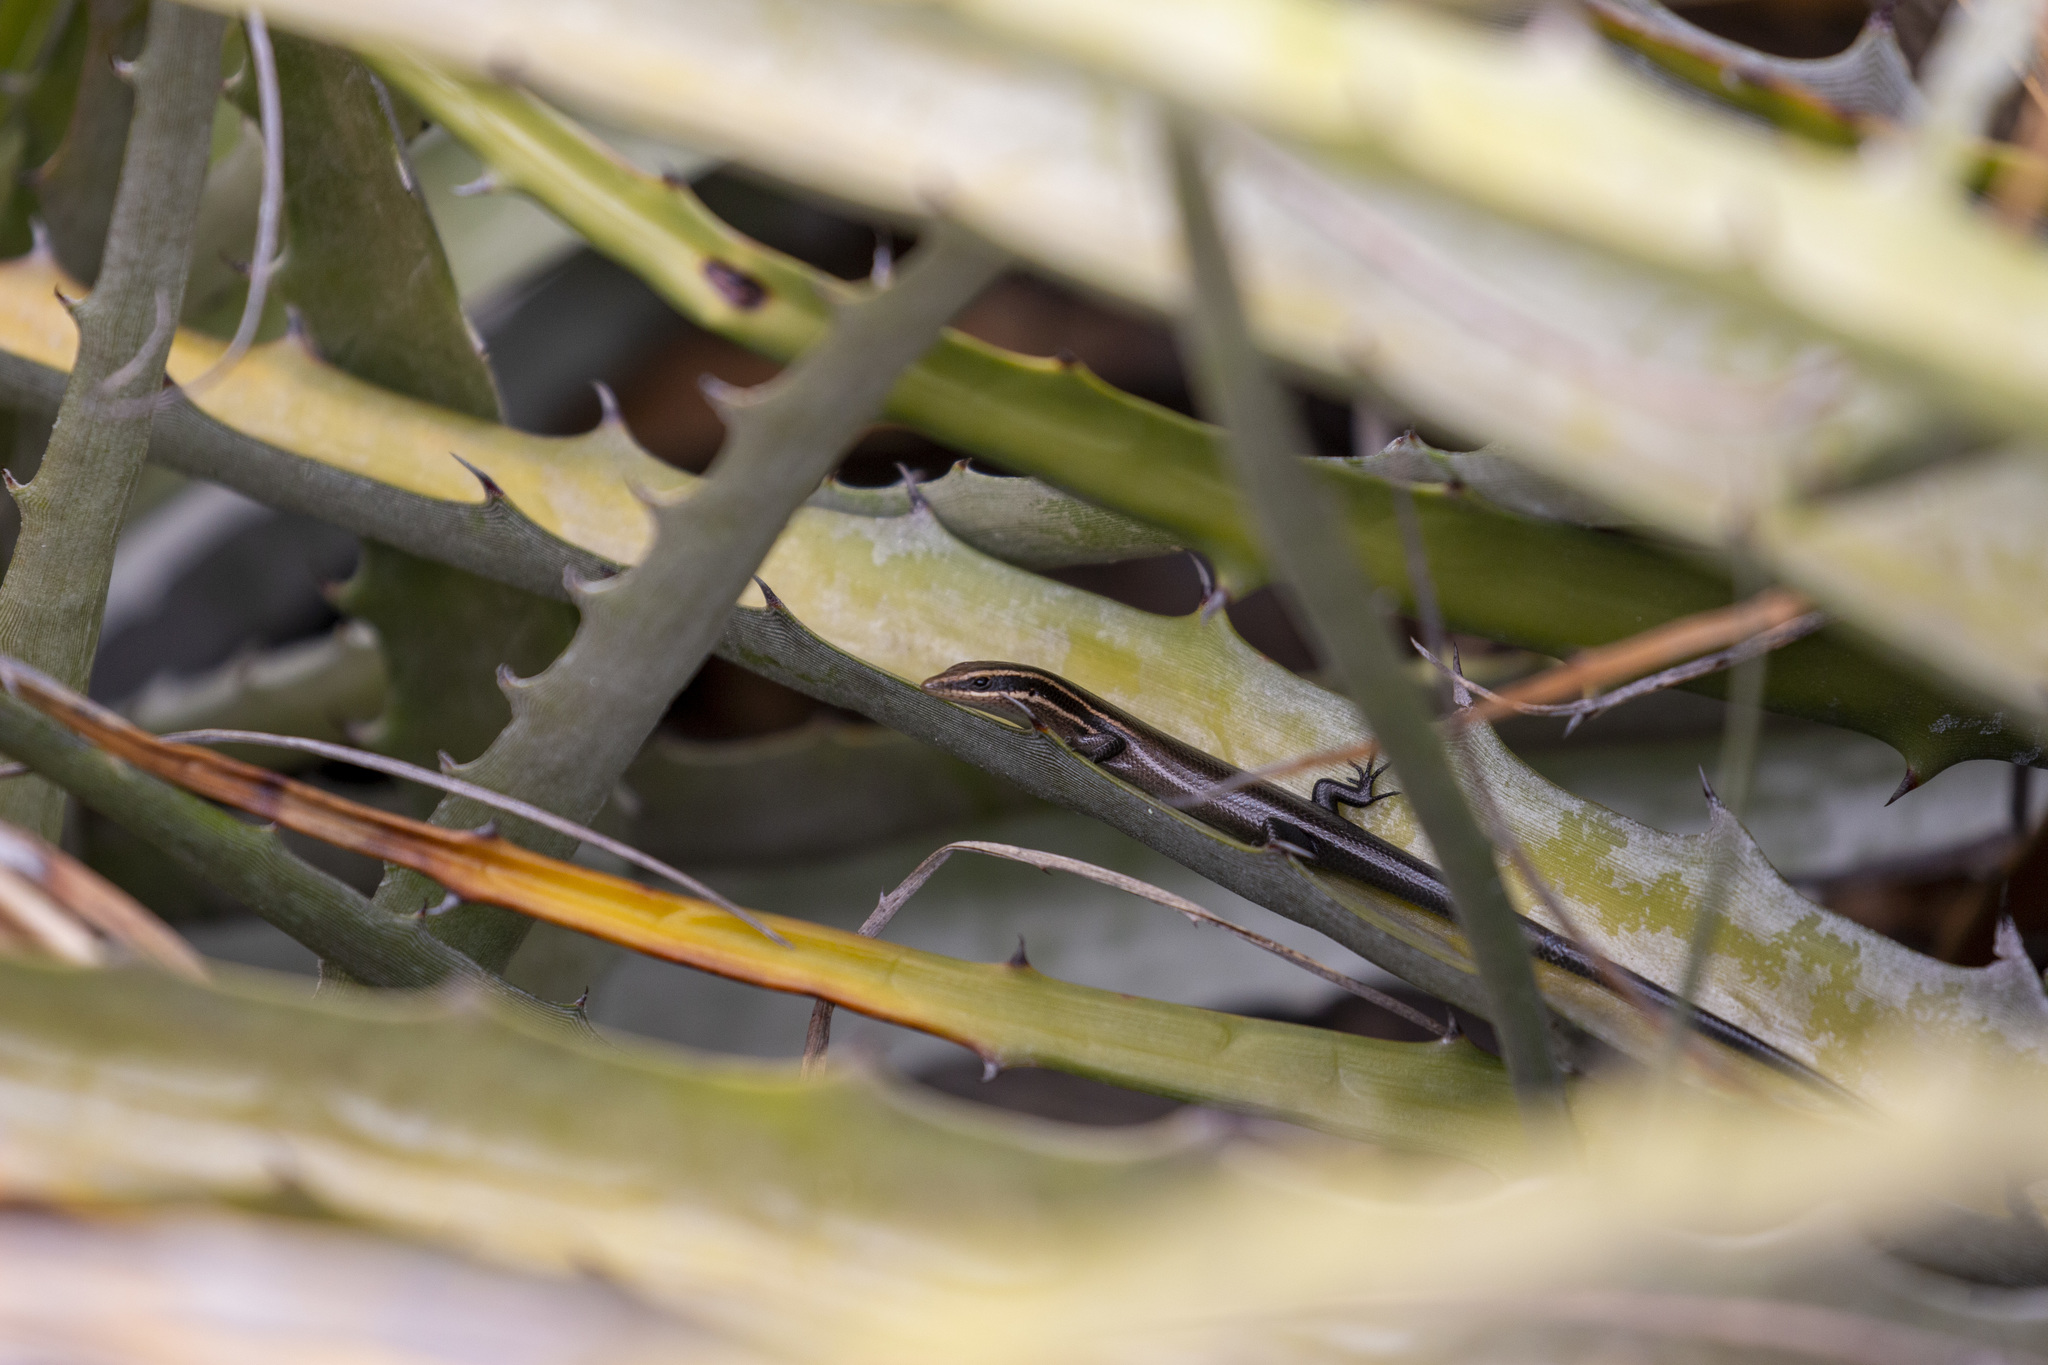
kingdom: Animalia
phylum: Chordata
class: Squamata
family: Scincidae
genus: Psychosaura
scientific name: Psychosaura agmosticha
